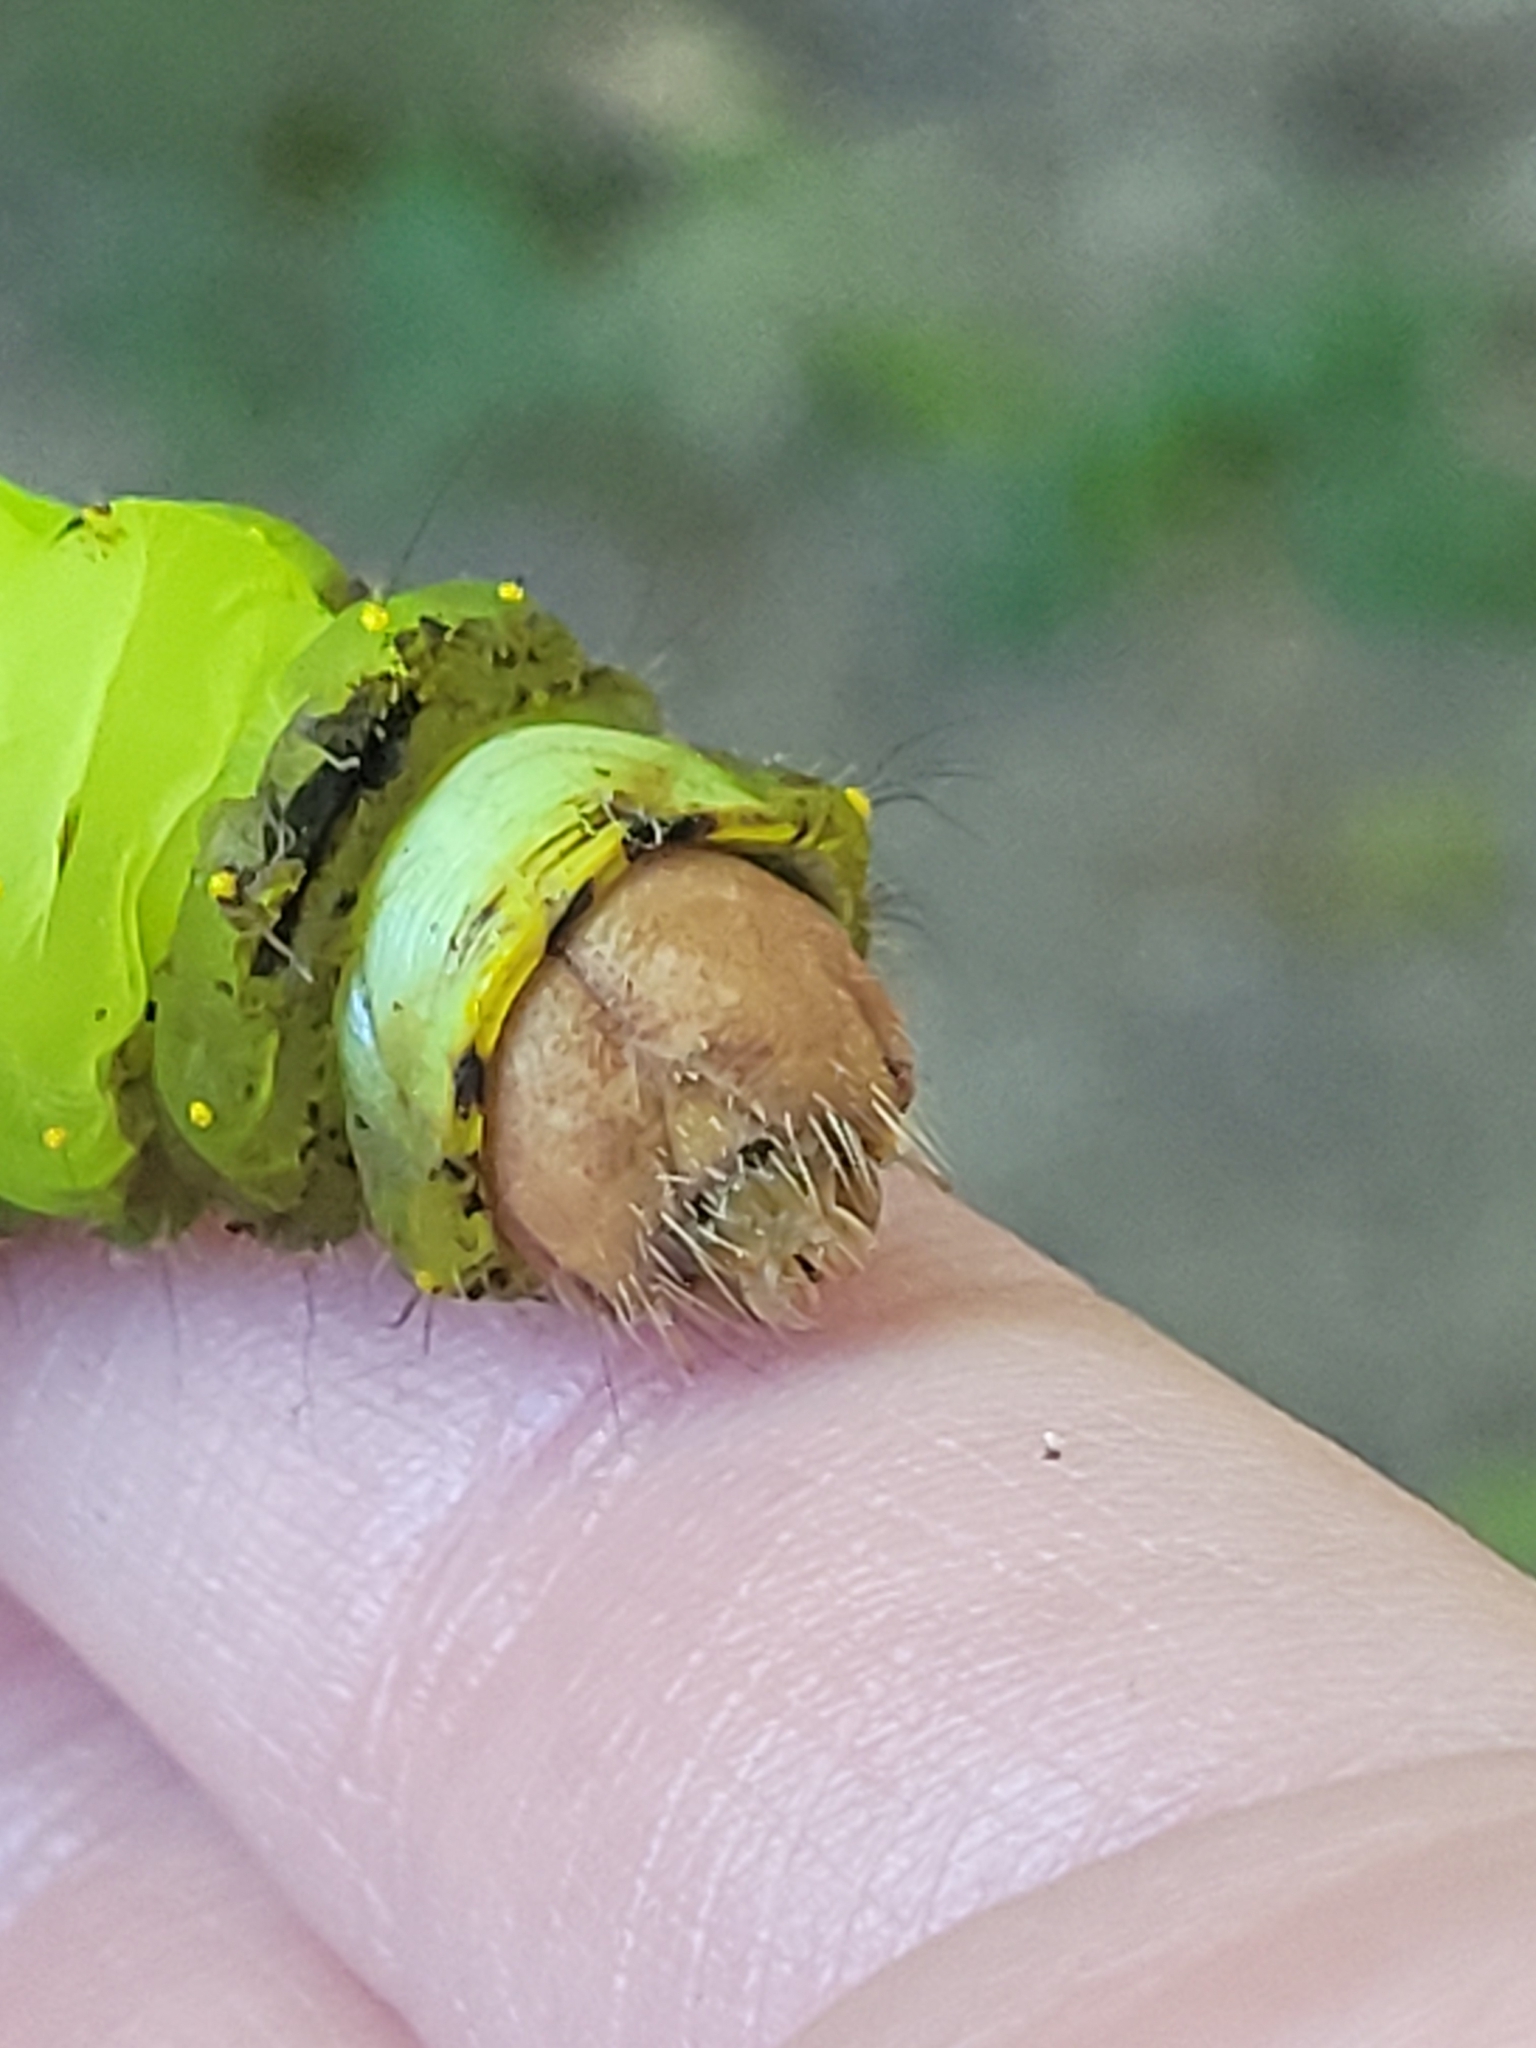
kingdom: Animalia
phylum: Arthropoda
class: Insecta
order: Lepidoptera
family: Saturniidae
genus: Antheraea
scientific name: Antheraea polyphemus
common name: Polyphemus moth
